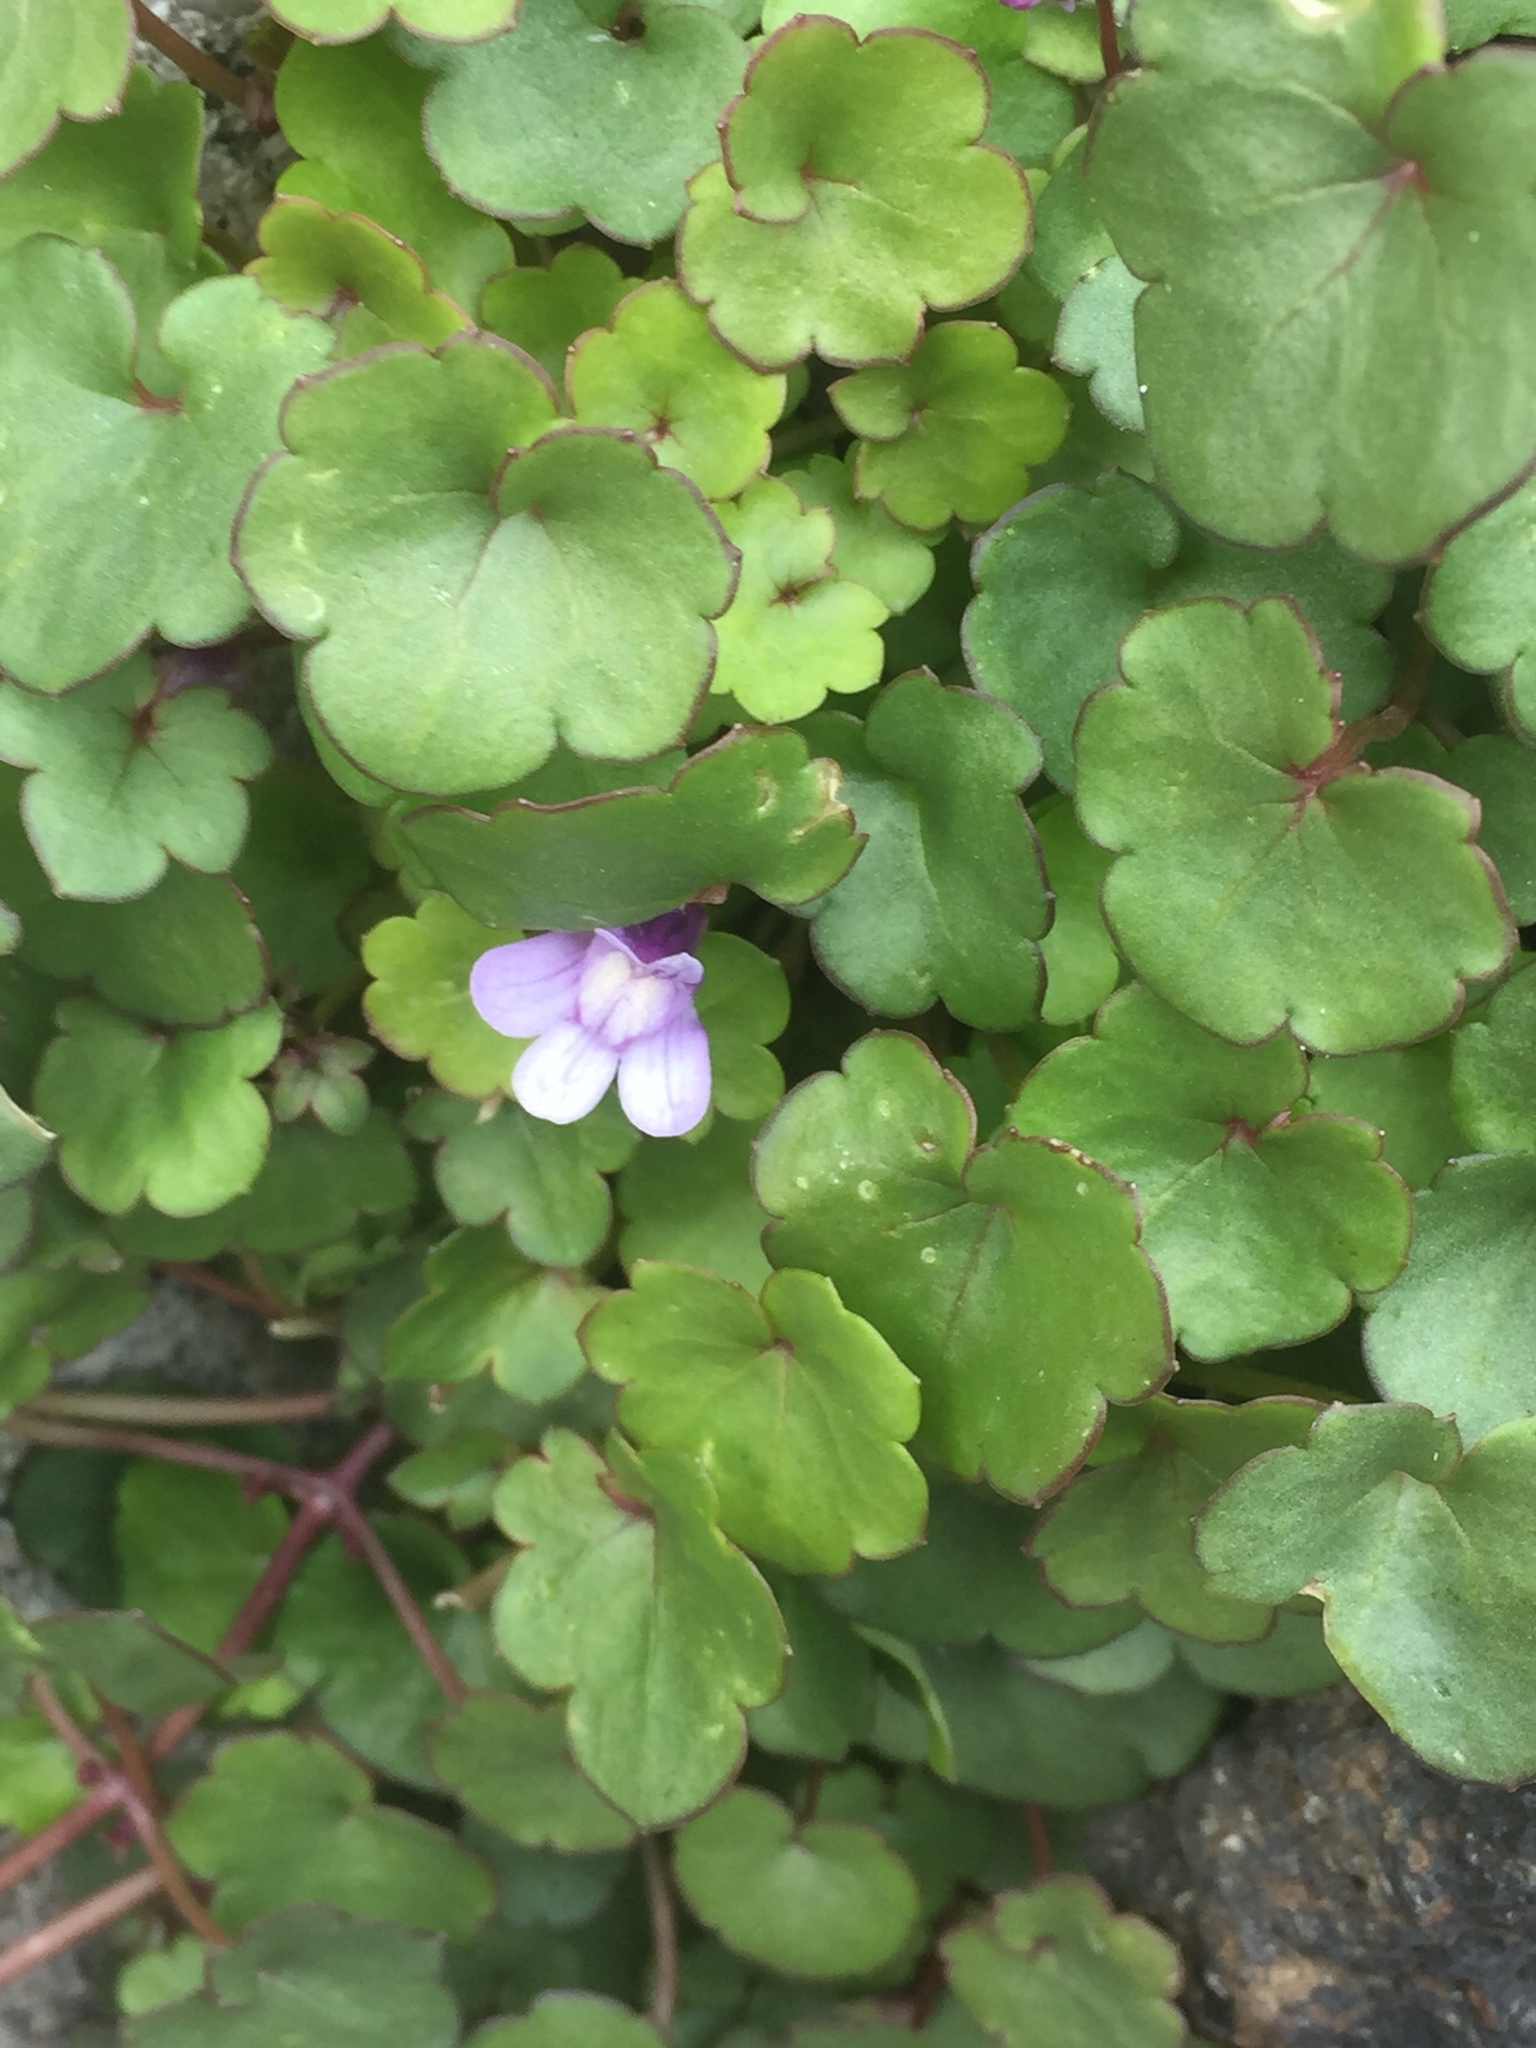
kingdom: Plantae
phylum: Tracheophyta
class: Magnoliopsida
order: Lamiales
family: Plantaginaceae
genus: Cymbalaria
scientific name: Cymbalaria muralis
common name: Ivy-leaved toadflax
